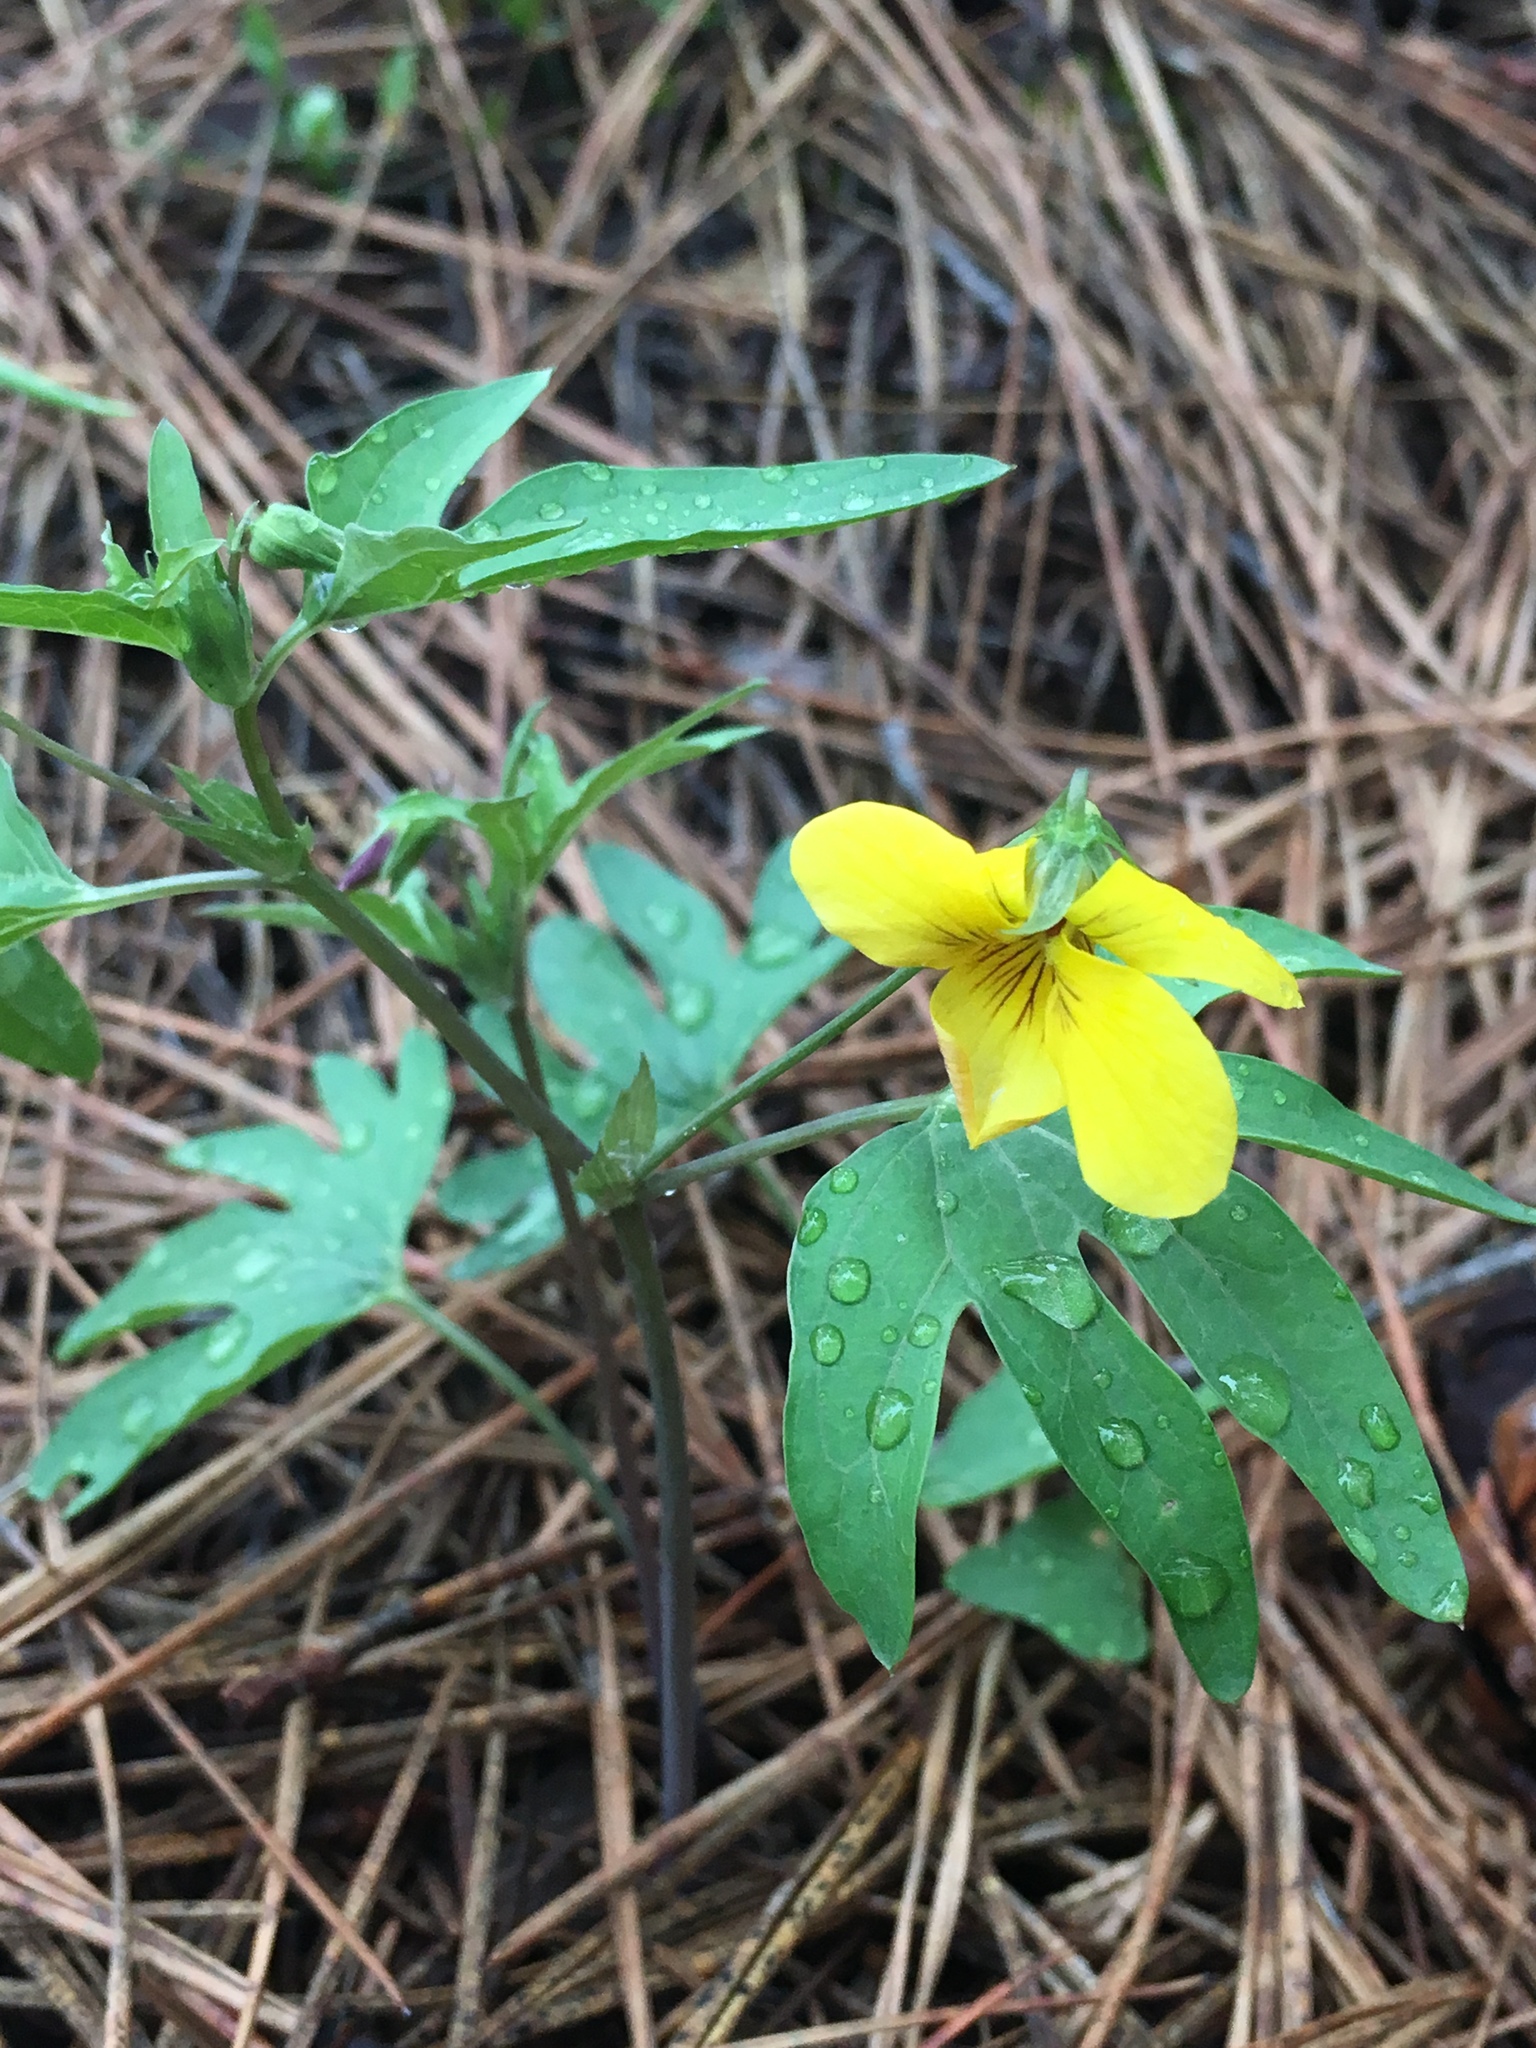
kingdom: Plantae
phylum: Tracheophyta
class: Magnoliopsida
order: Malpighiales
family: Violaceae
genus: Viola
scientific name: Viola lobata
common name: Pine violet
